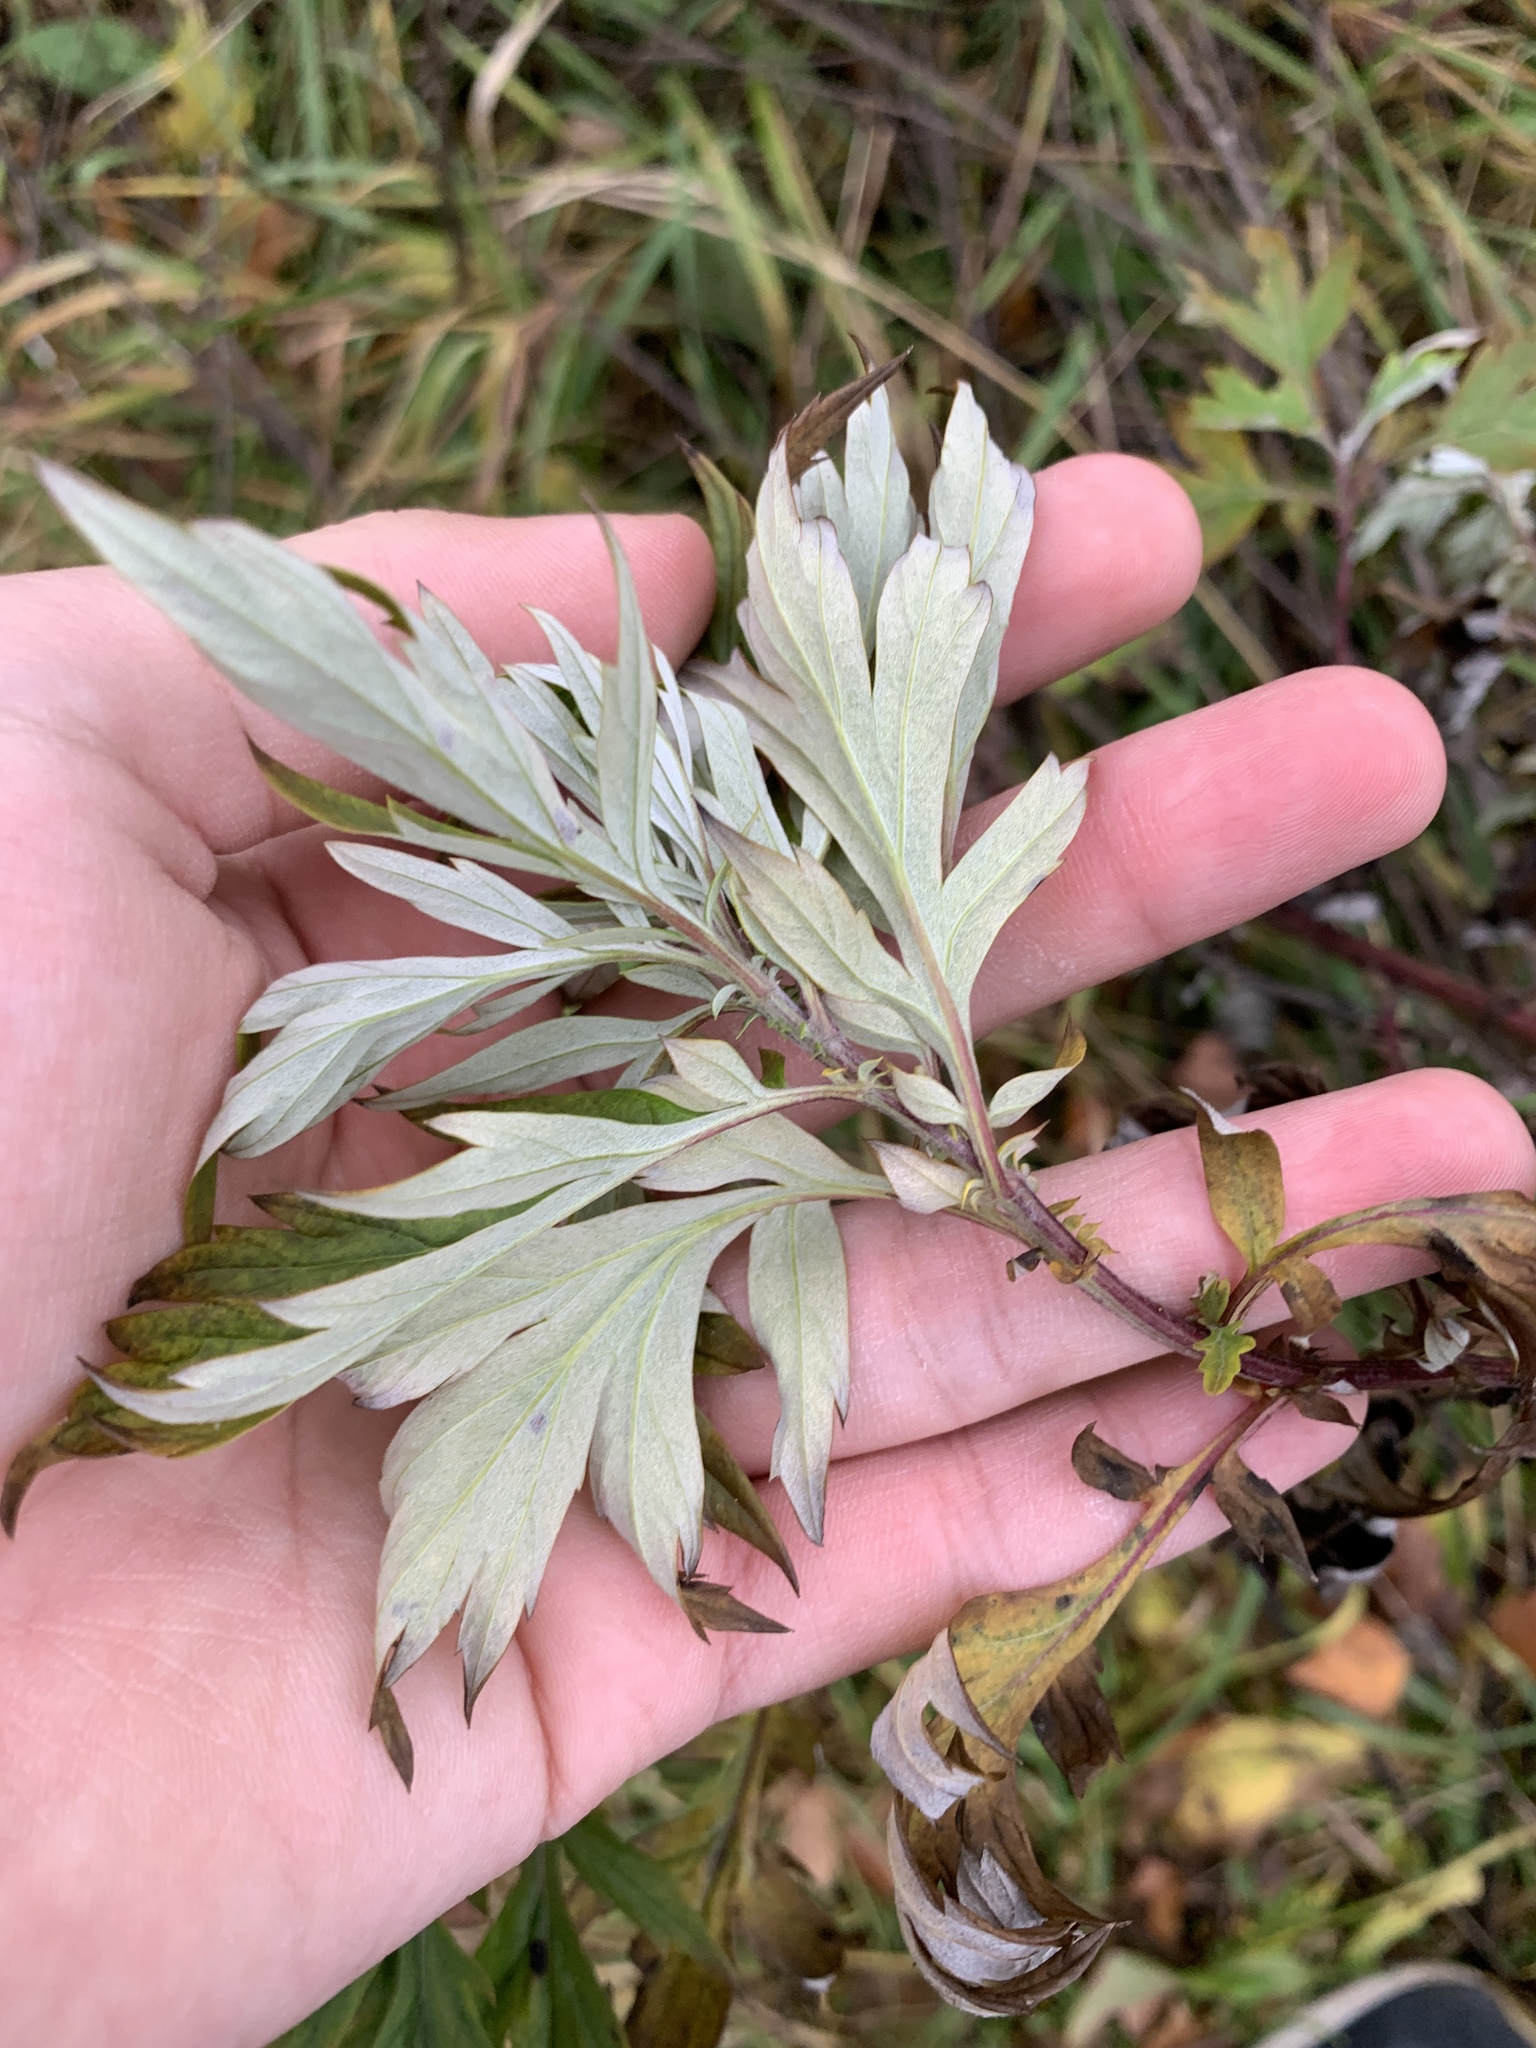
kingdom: Plantae
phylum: Tracheophyta
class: Magnoliopsida
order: Asterales
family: Asteraceae
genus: Artemisia
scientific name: Artemisia vulgaris
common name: Mugwort
